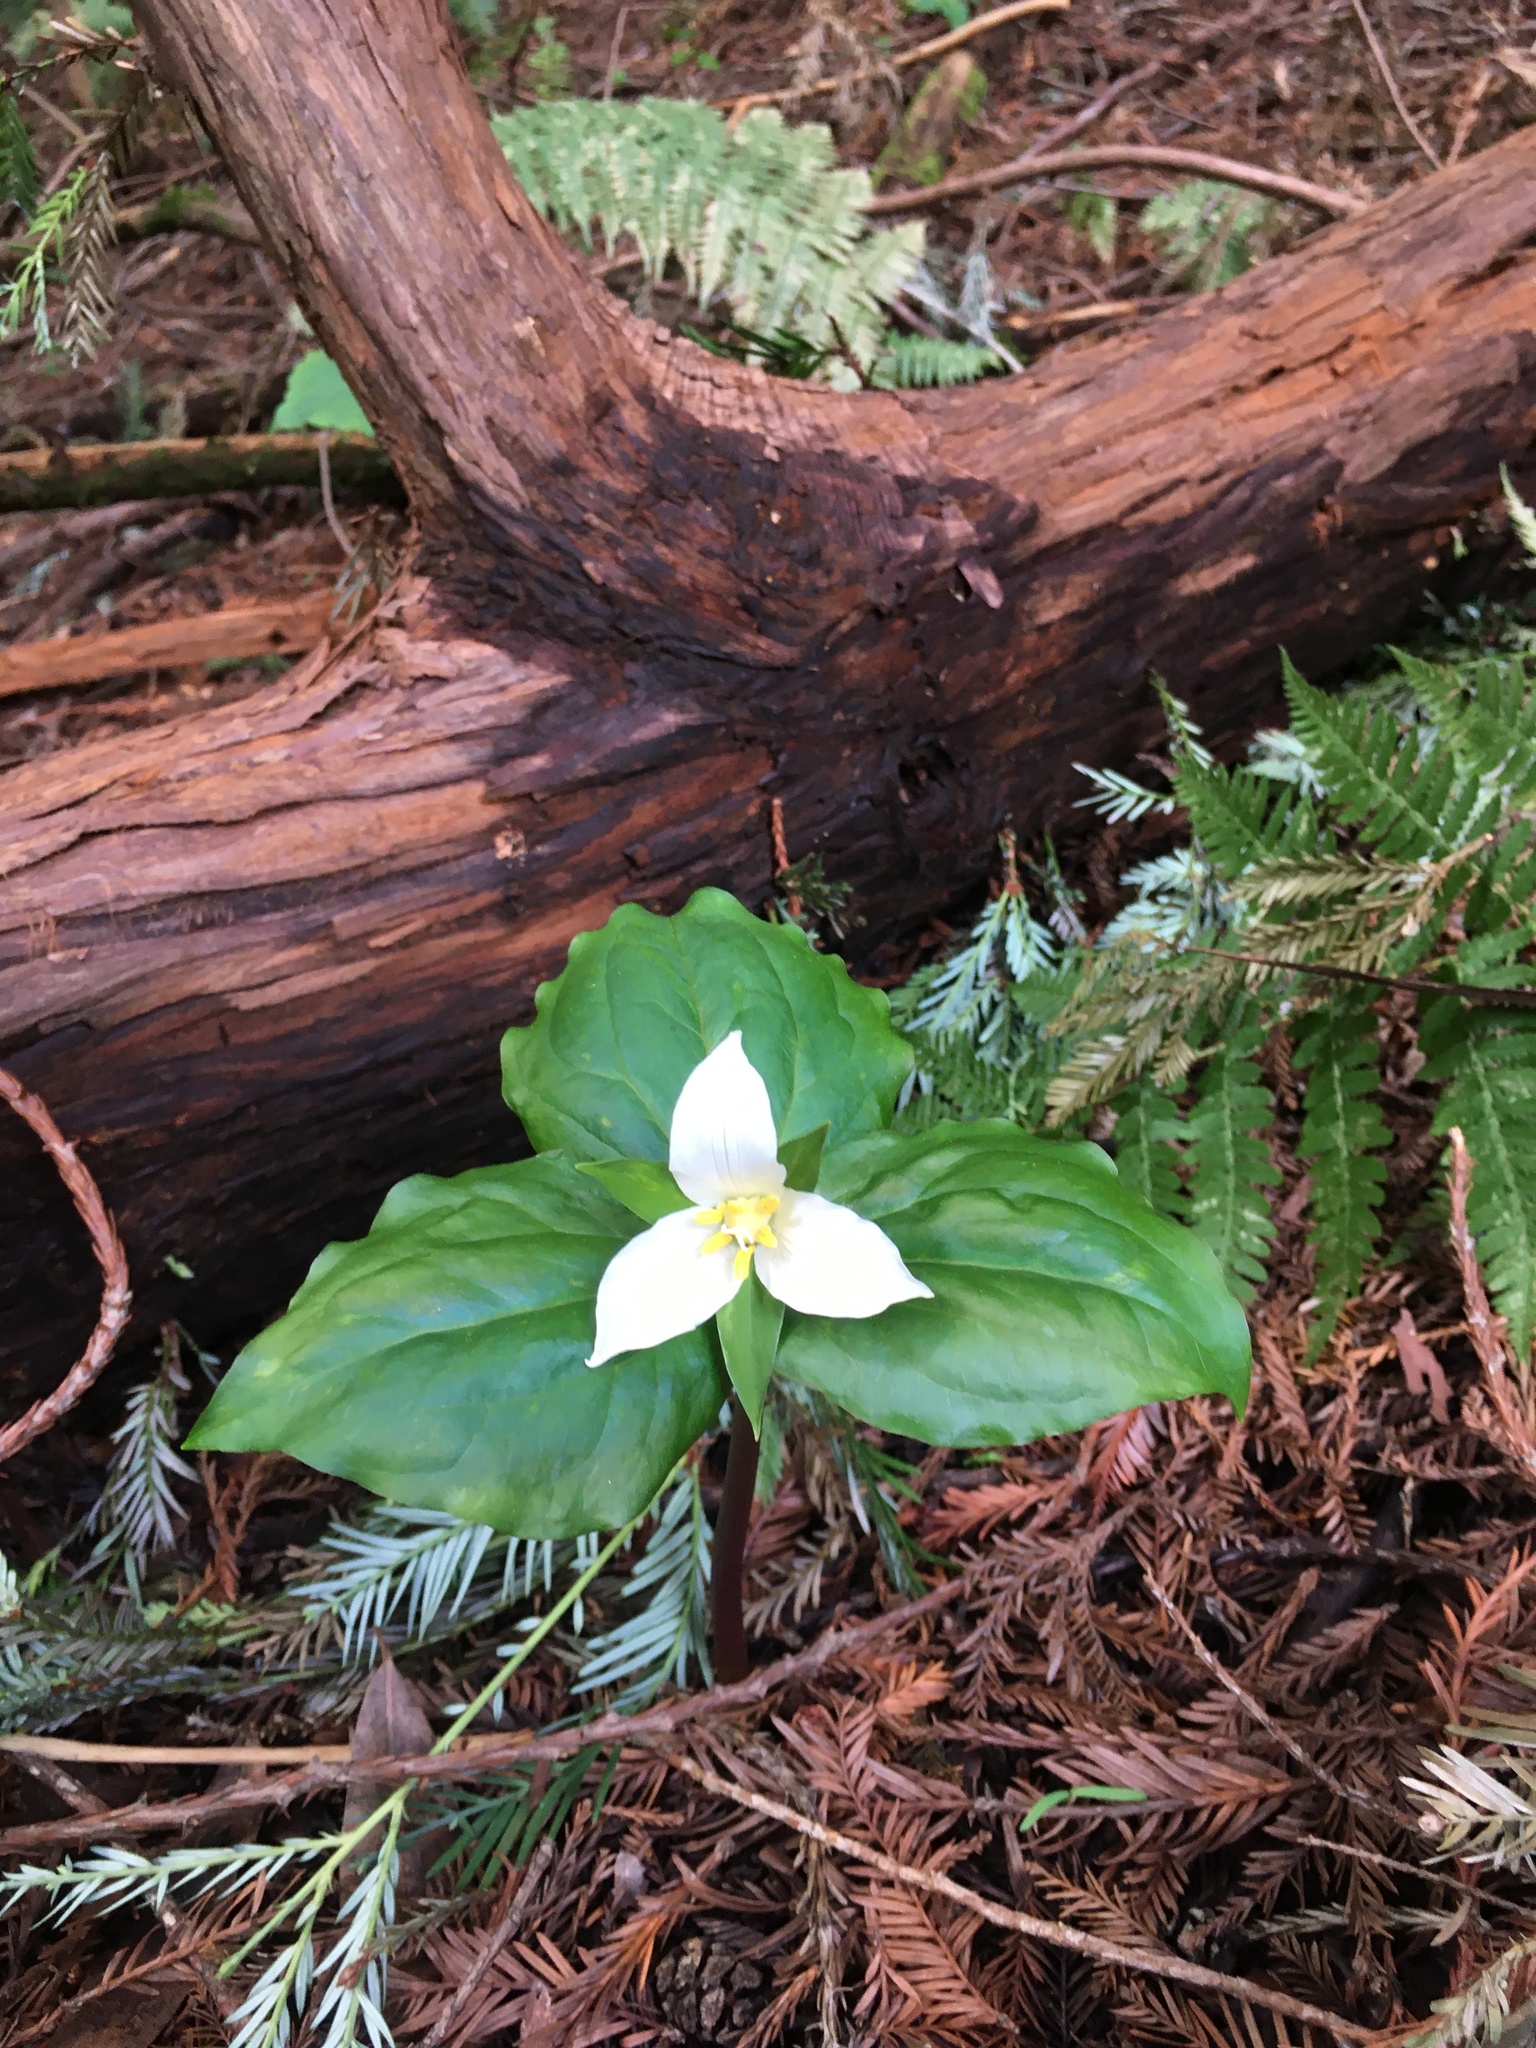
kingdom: Plantae
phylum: Tracheophyta
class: Liliopsida
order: Liliales
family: Melanthiaceae
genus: Trillium
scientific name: Trillium ovatum
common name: Pacific trillium
